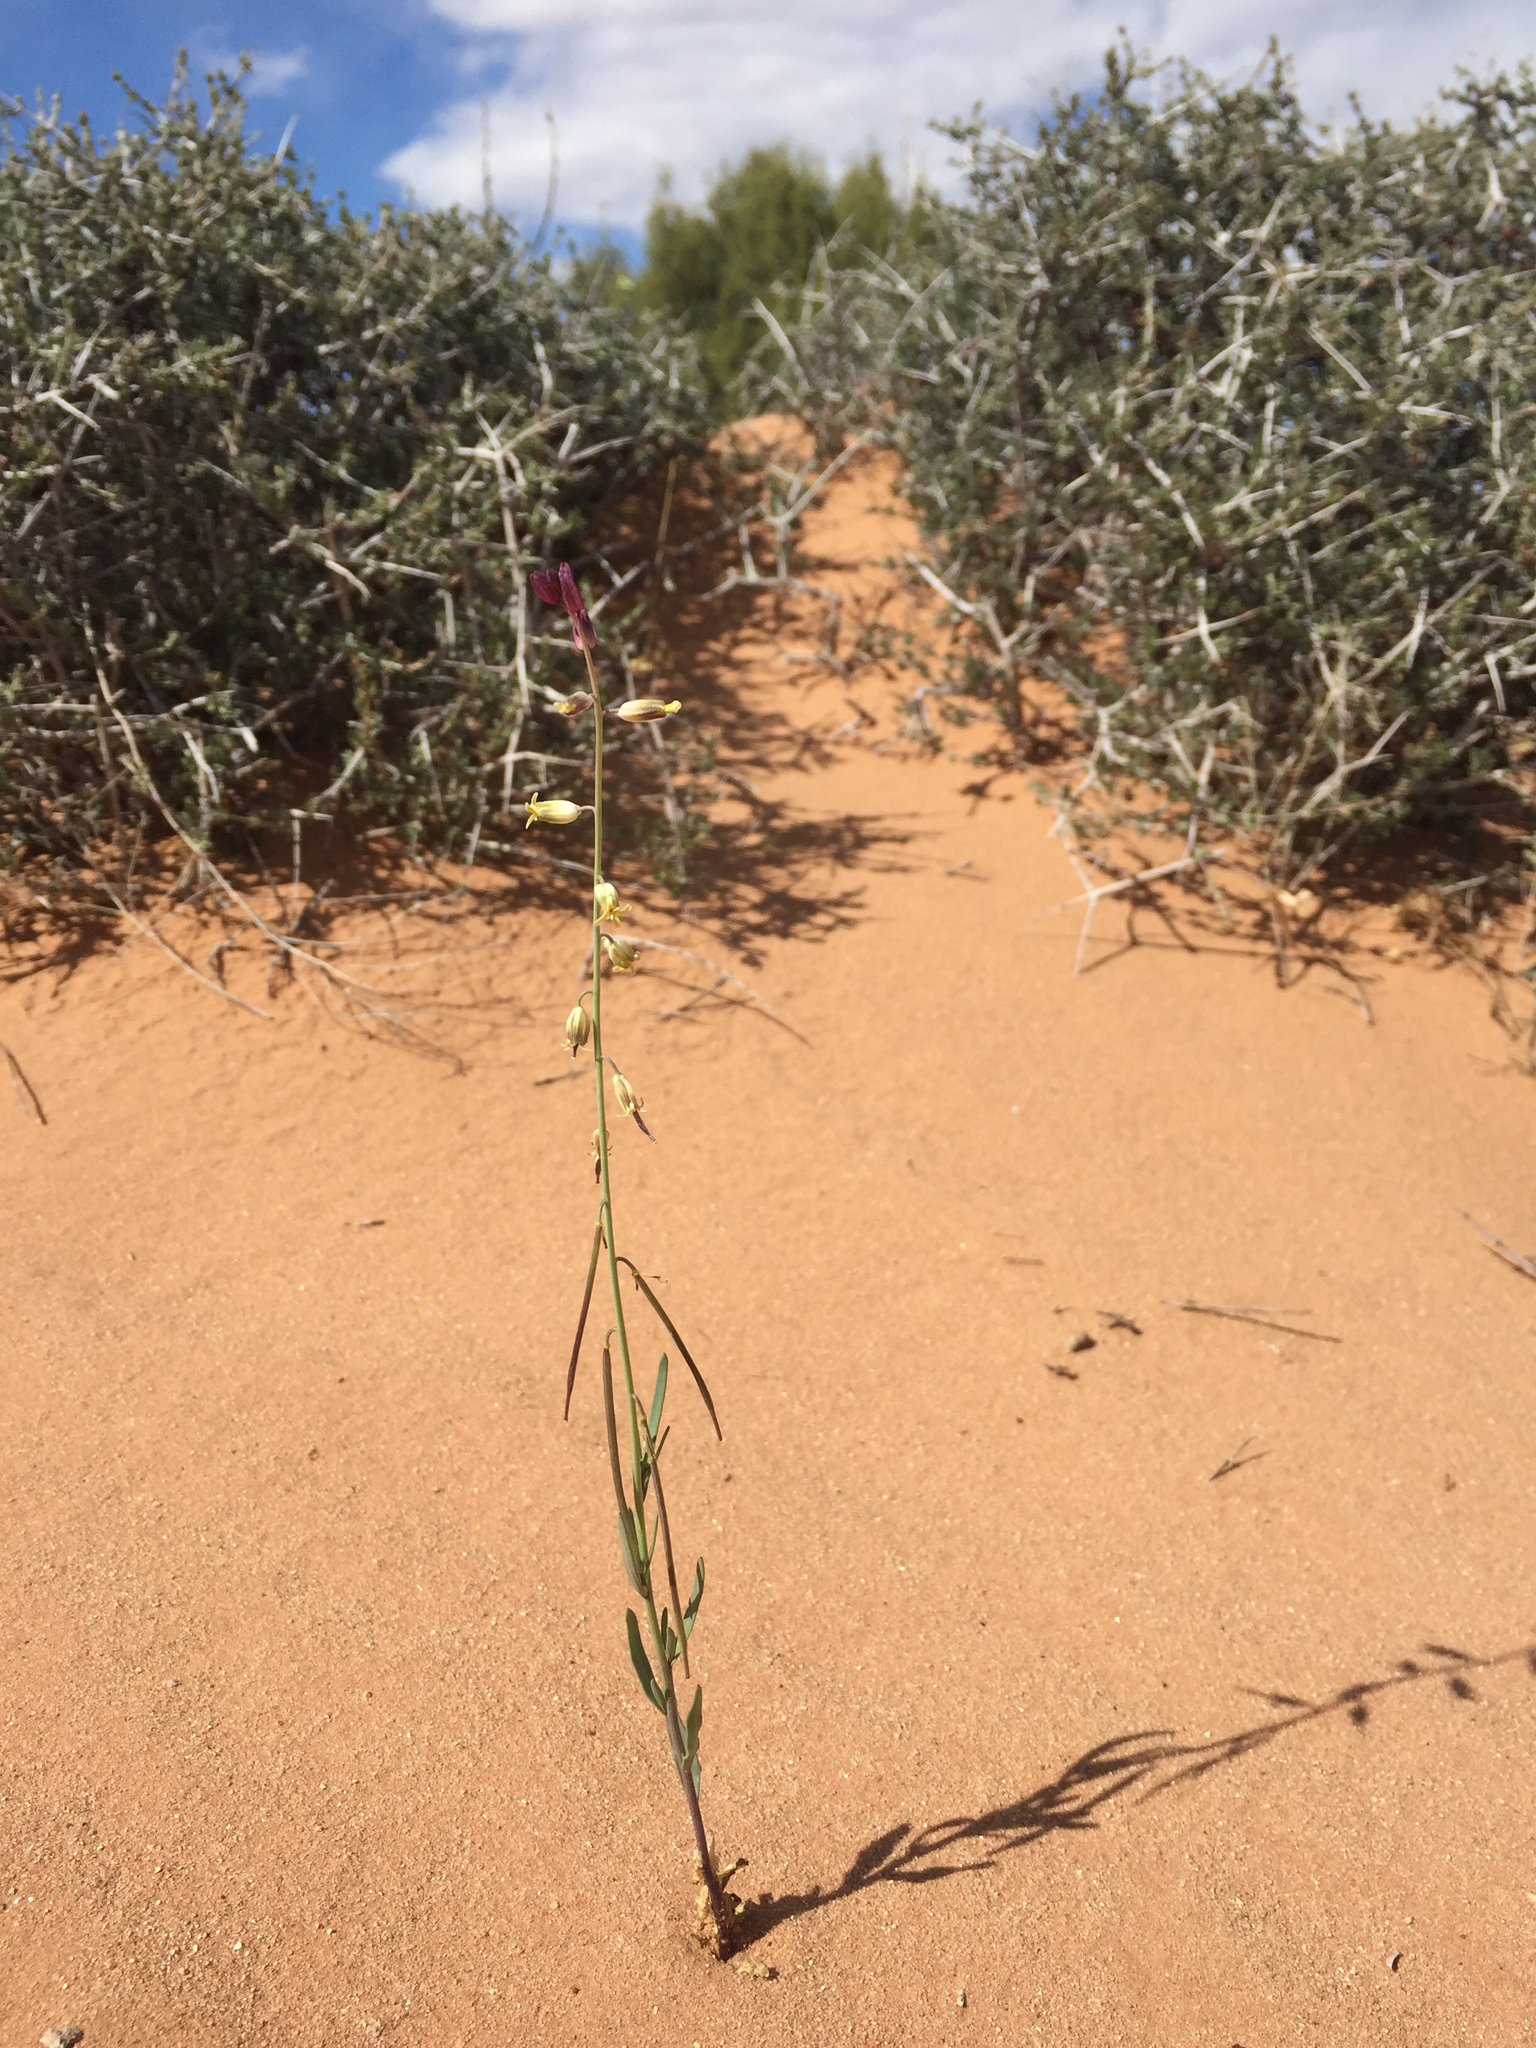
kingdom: Plantae
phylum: Tracheophyta
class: Magnoliopsida
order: Brassicales
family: Brassicaceae
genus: Streptanthus
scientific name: Streptanthus longirostris
